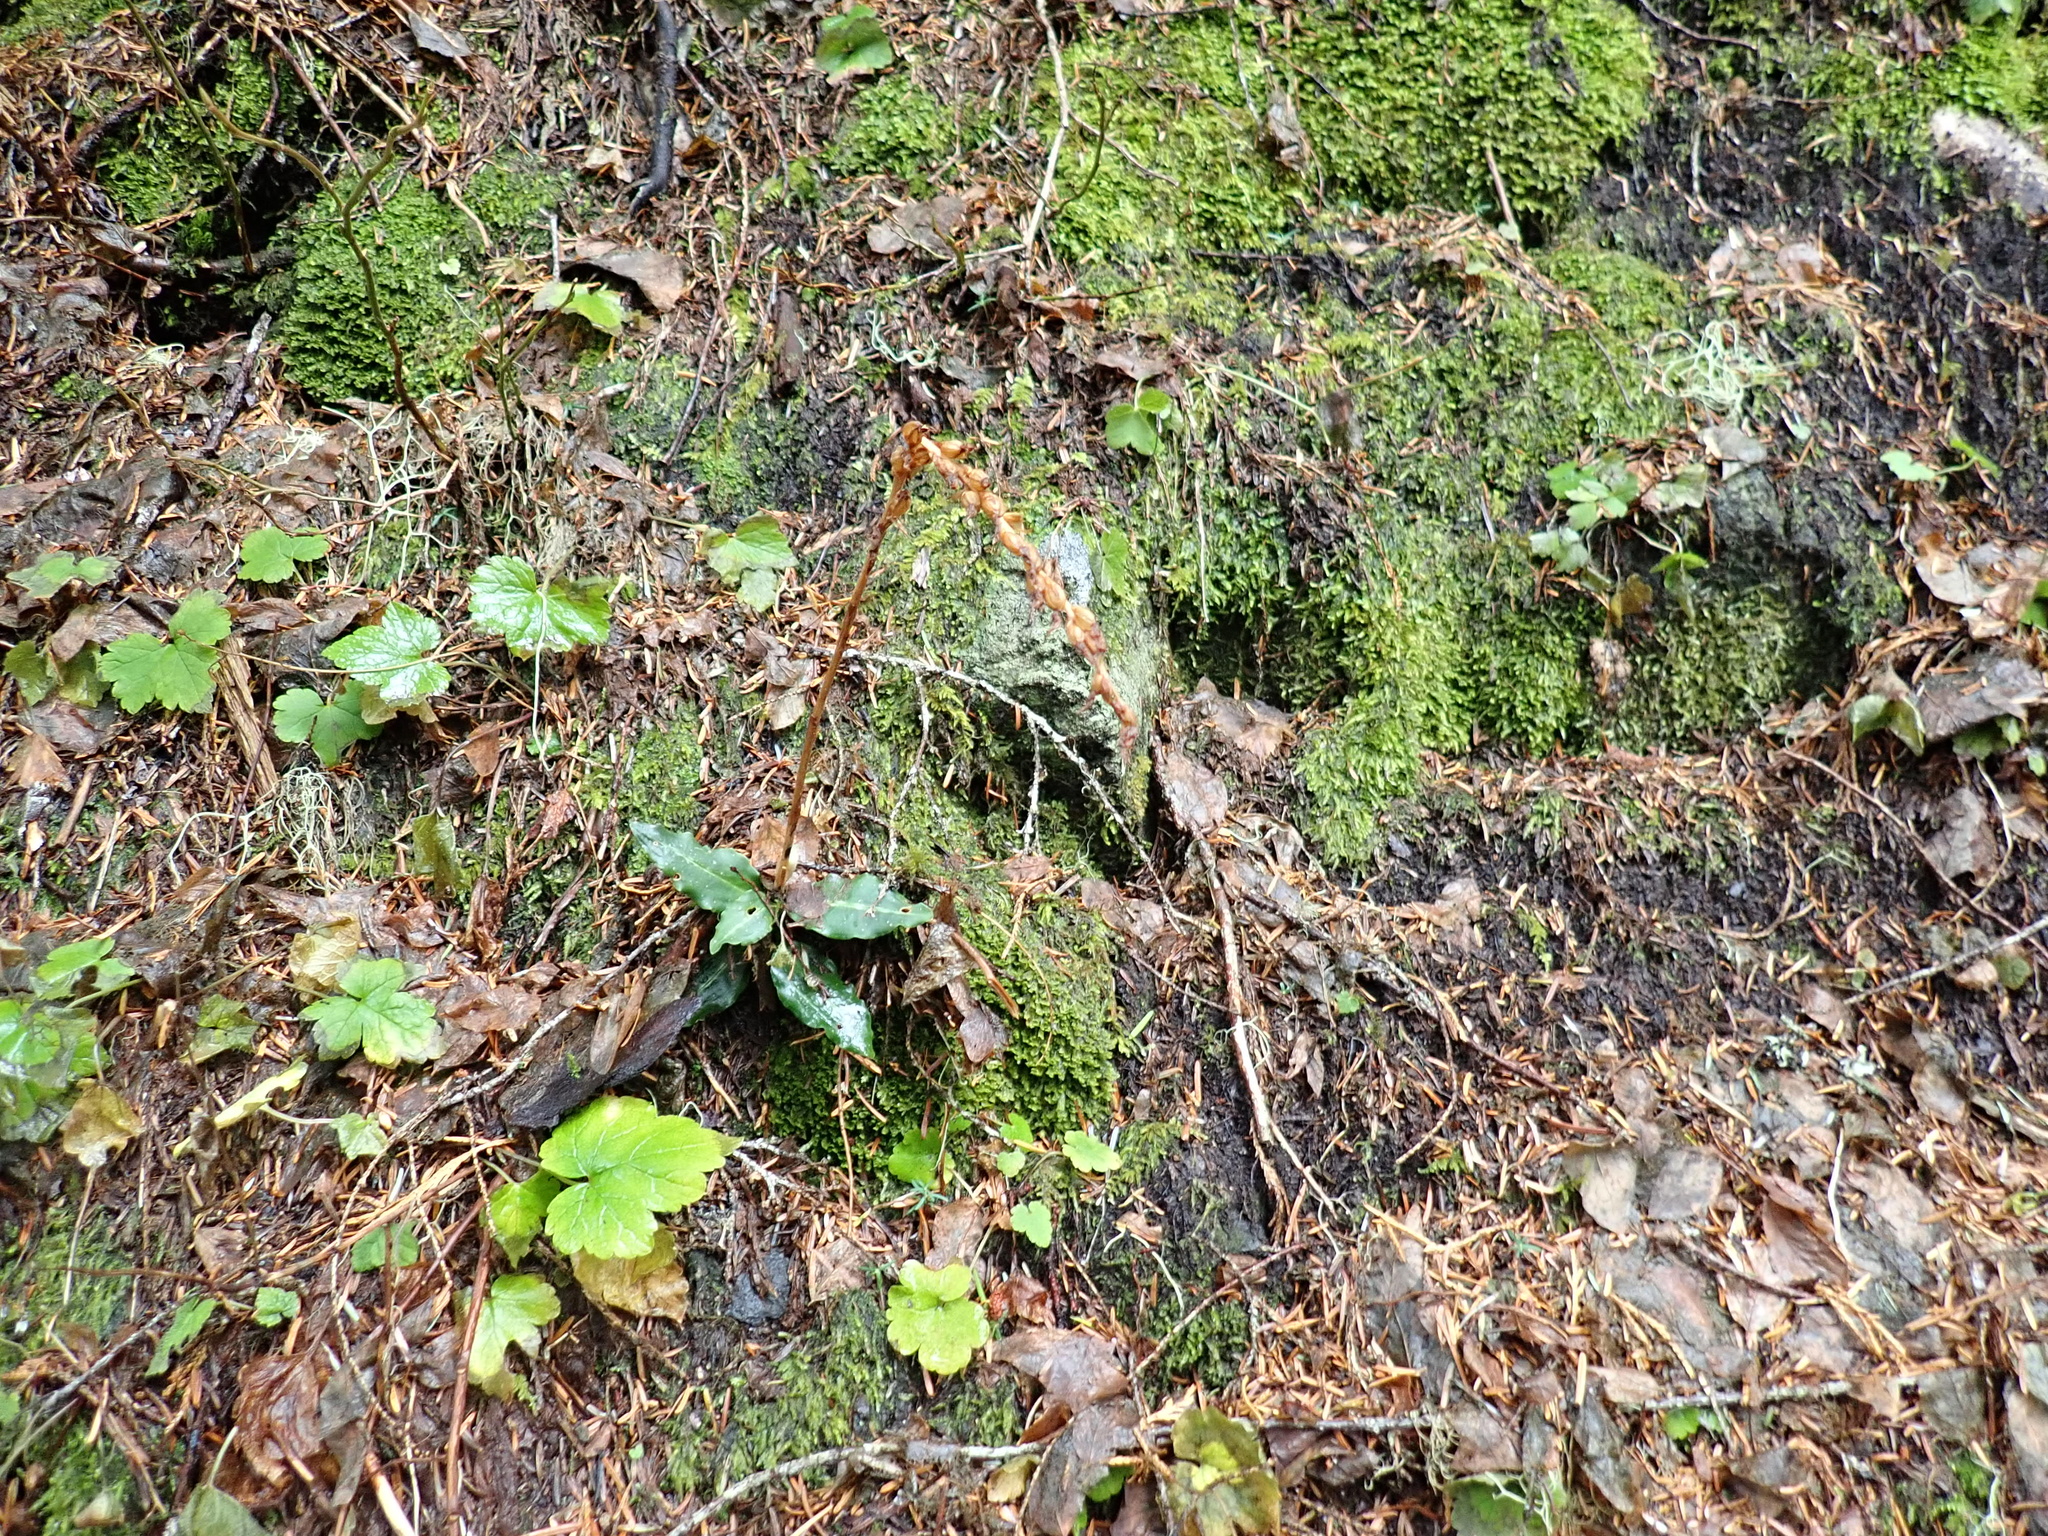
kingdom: Plantae
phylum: Tracheophyta
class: Liliopsida
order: Asparagales
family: Orchidaceae
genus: Goodyera
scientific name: Goodyera oblongifolia
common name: Giant rattlesnake-plantain
